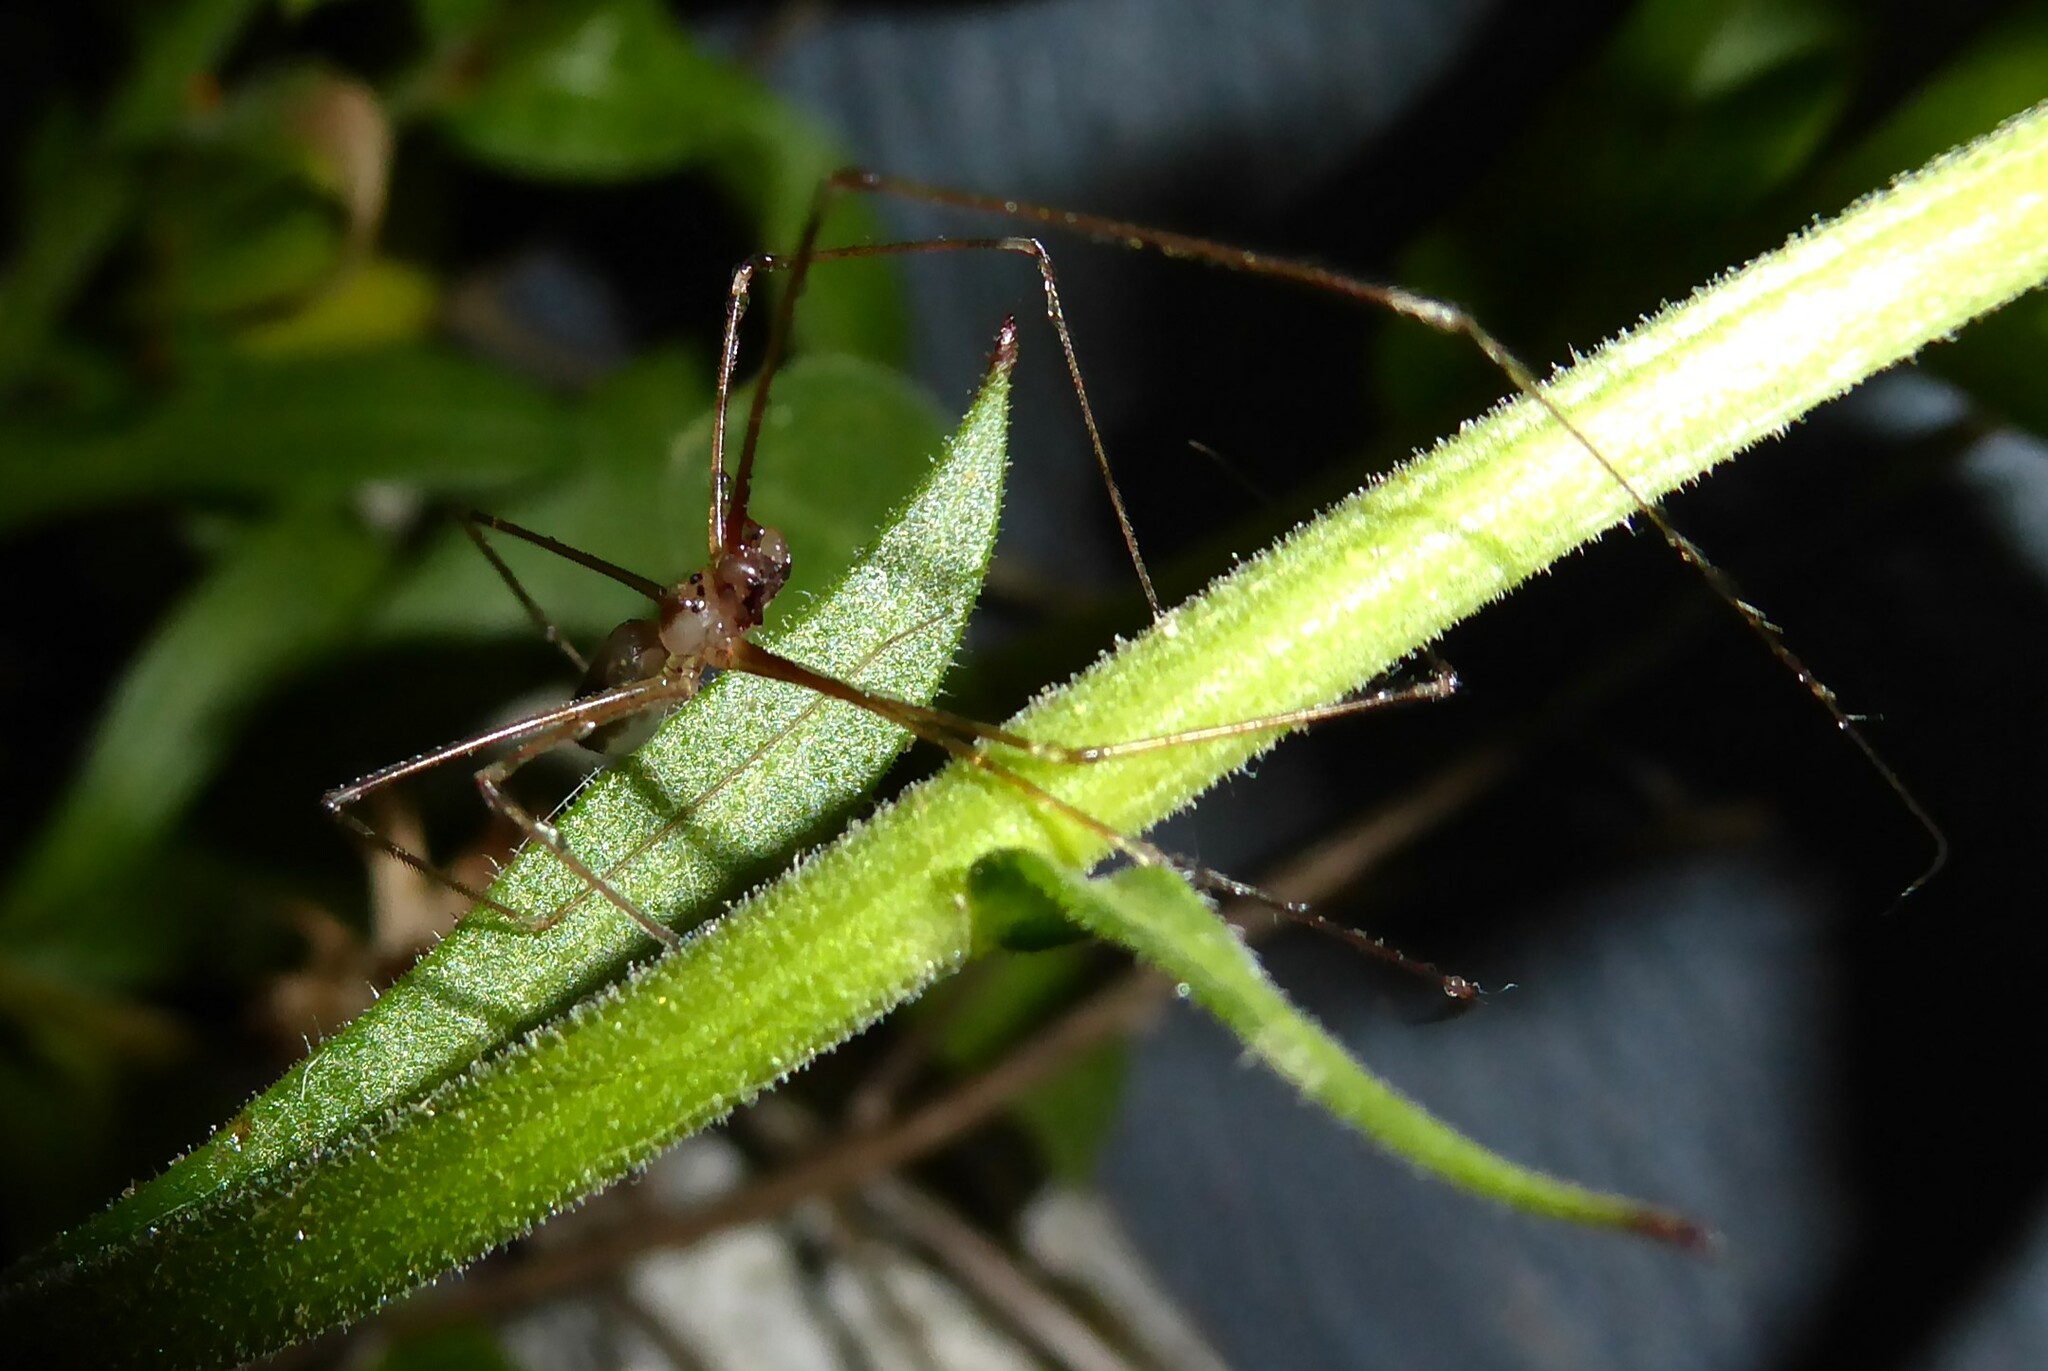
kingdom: Animalia
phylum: Arthropoda
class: Arachnida
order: Araneae
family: Pholcidae
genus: Pholcus
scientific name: Pholcus phalangioides
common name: Longbodied cellar spider
